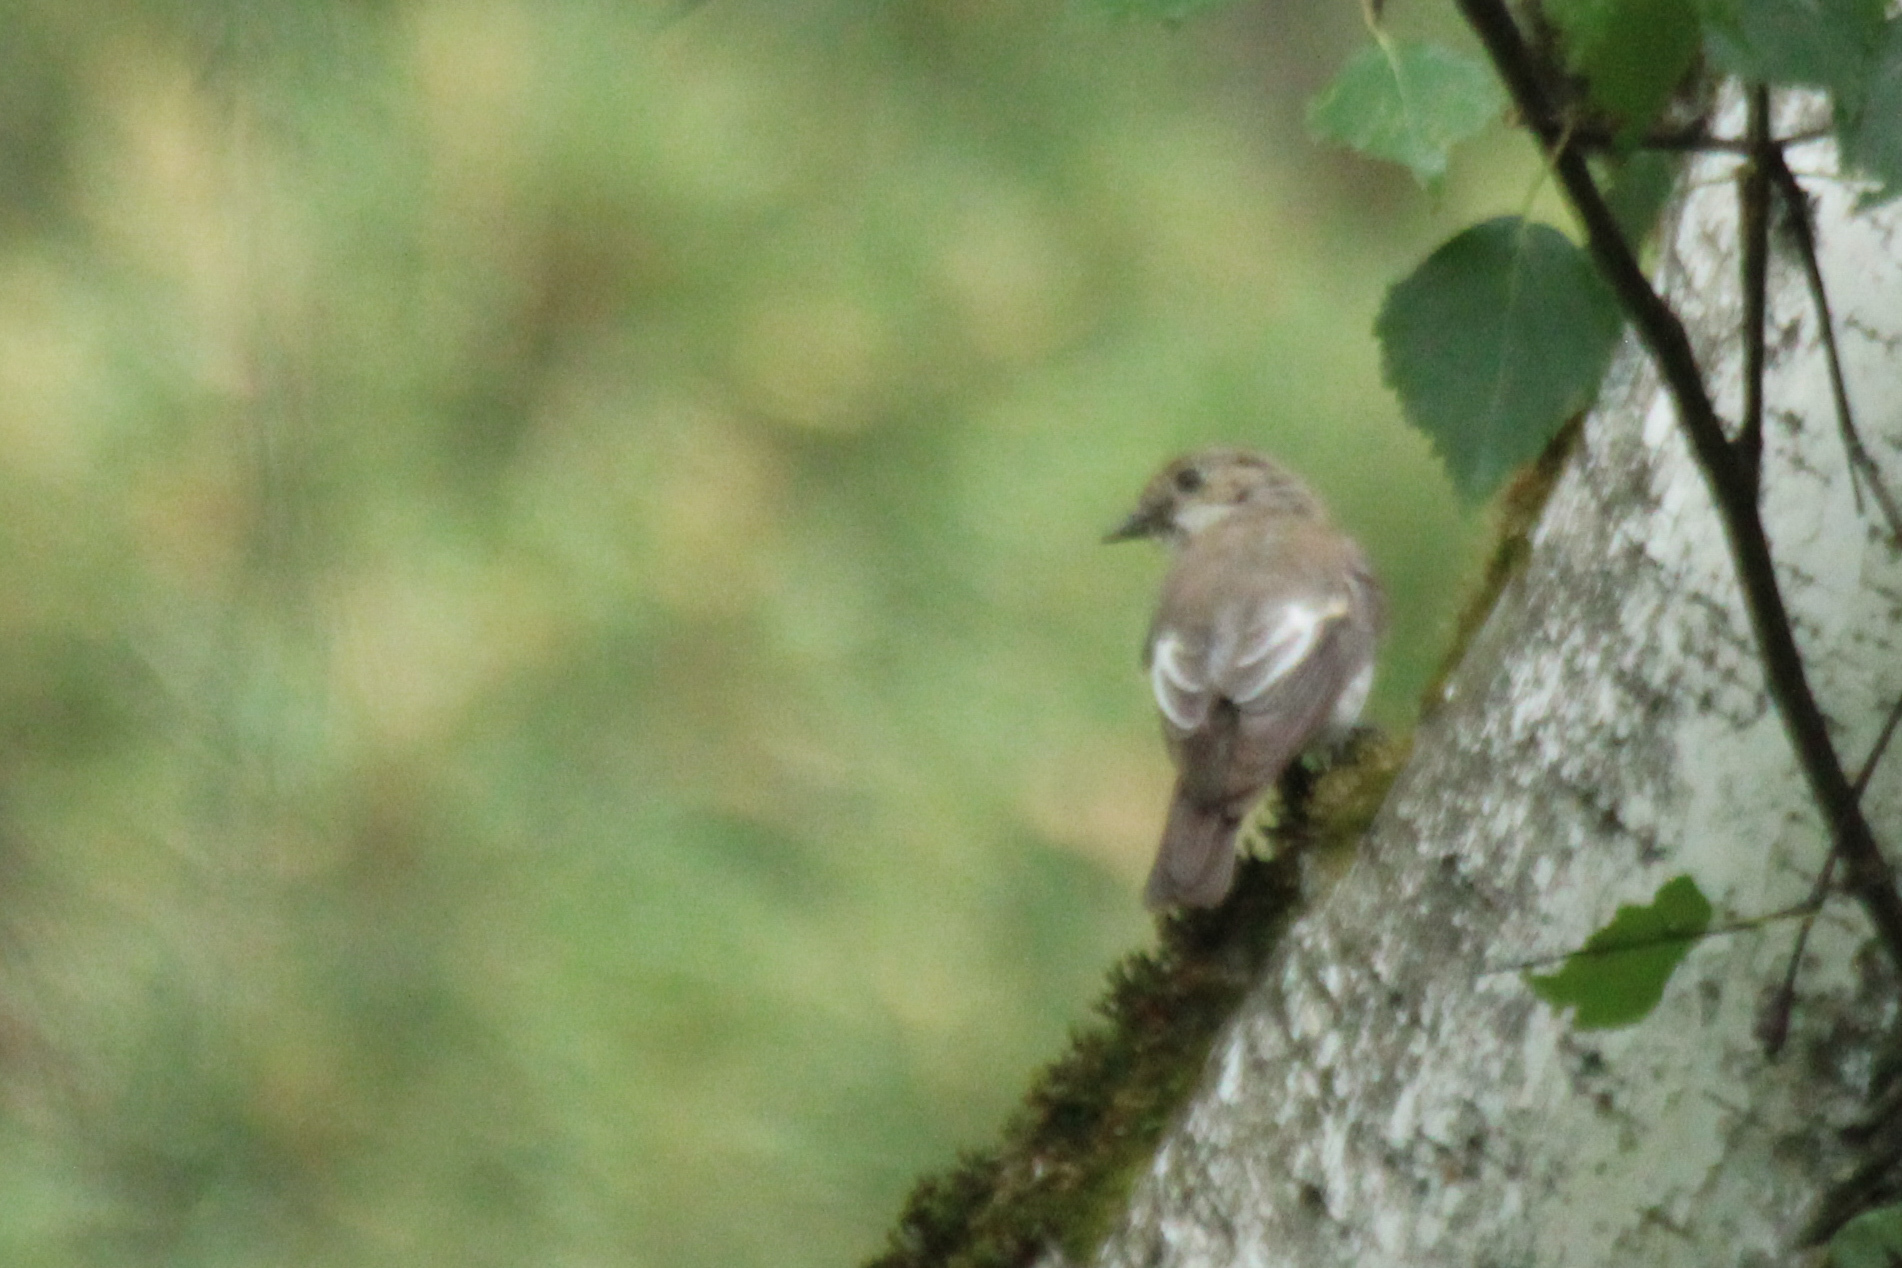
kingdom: Animalia
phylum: Chordata
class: Aves
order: Passeriformes
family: Muscicapidae
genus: Ficedula
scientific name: Ficedula hypoleuca
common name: European pied flycatcher
